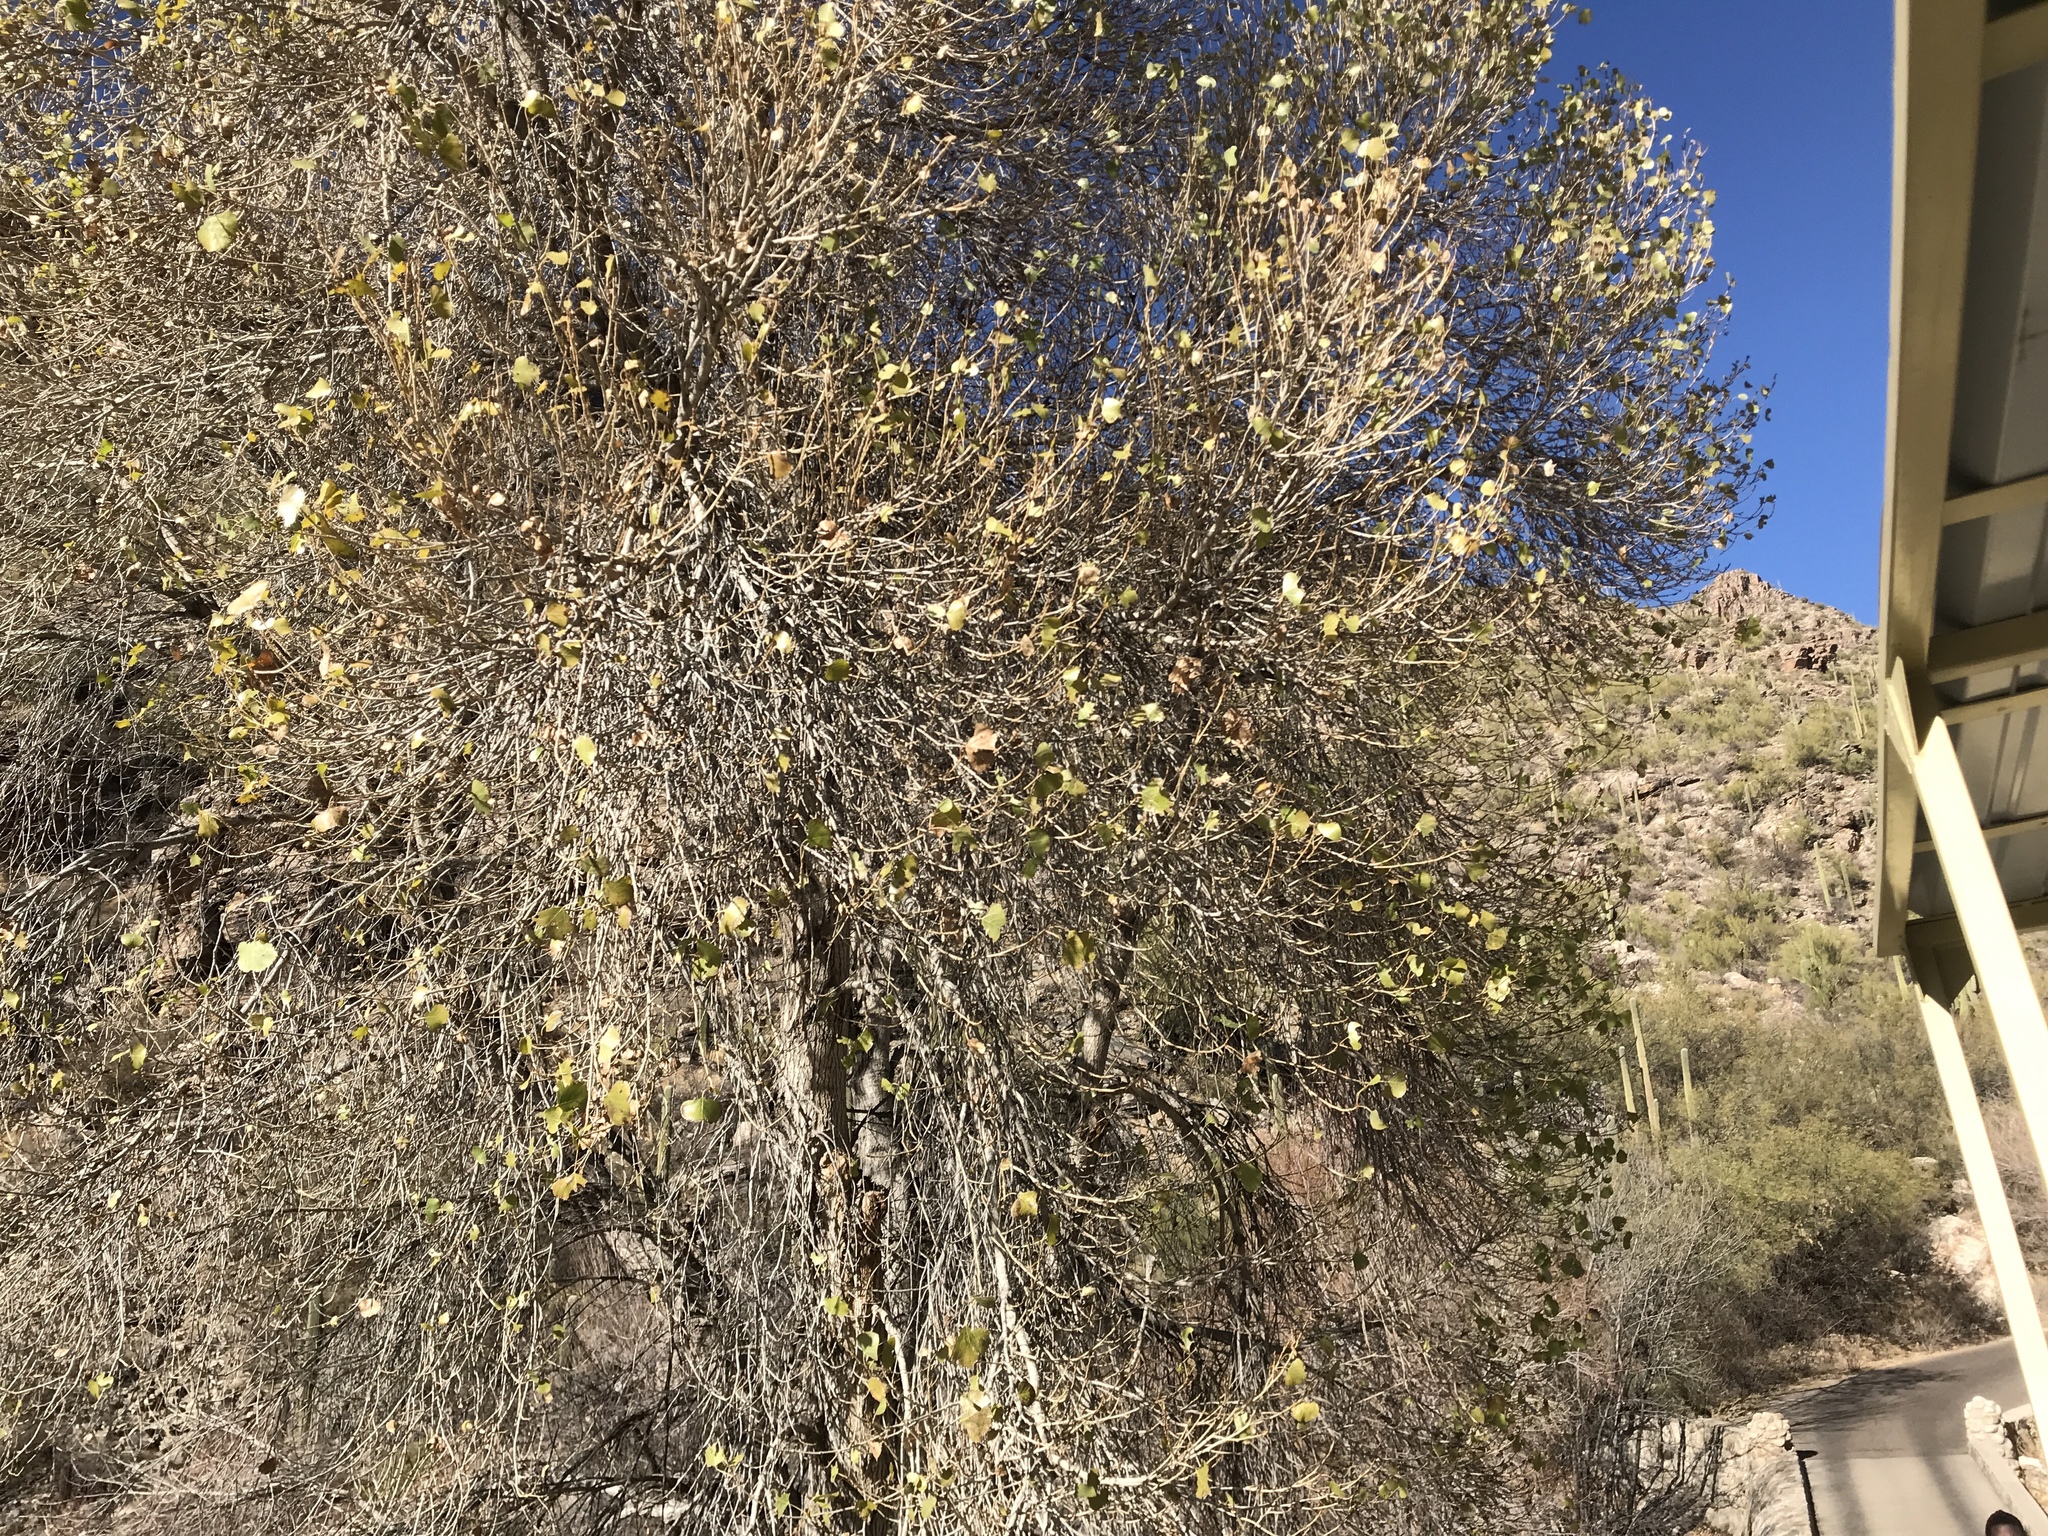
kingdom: Plantae
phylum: Tracheophyta
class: Magnoliopsida
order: Malpighiales
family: Salicaceae
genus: Populus
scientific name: Populus fremontii
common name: Fremont's cottonwood
